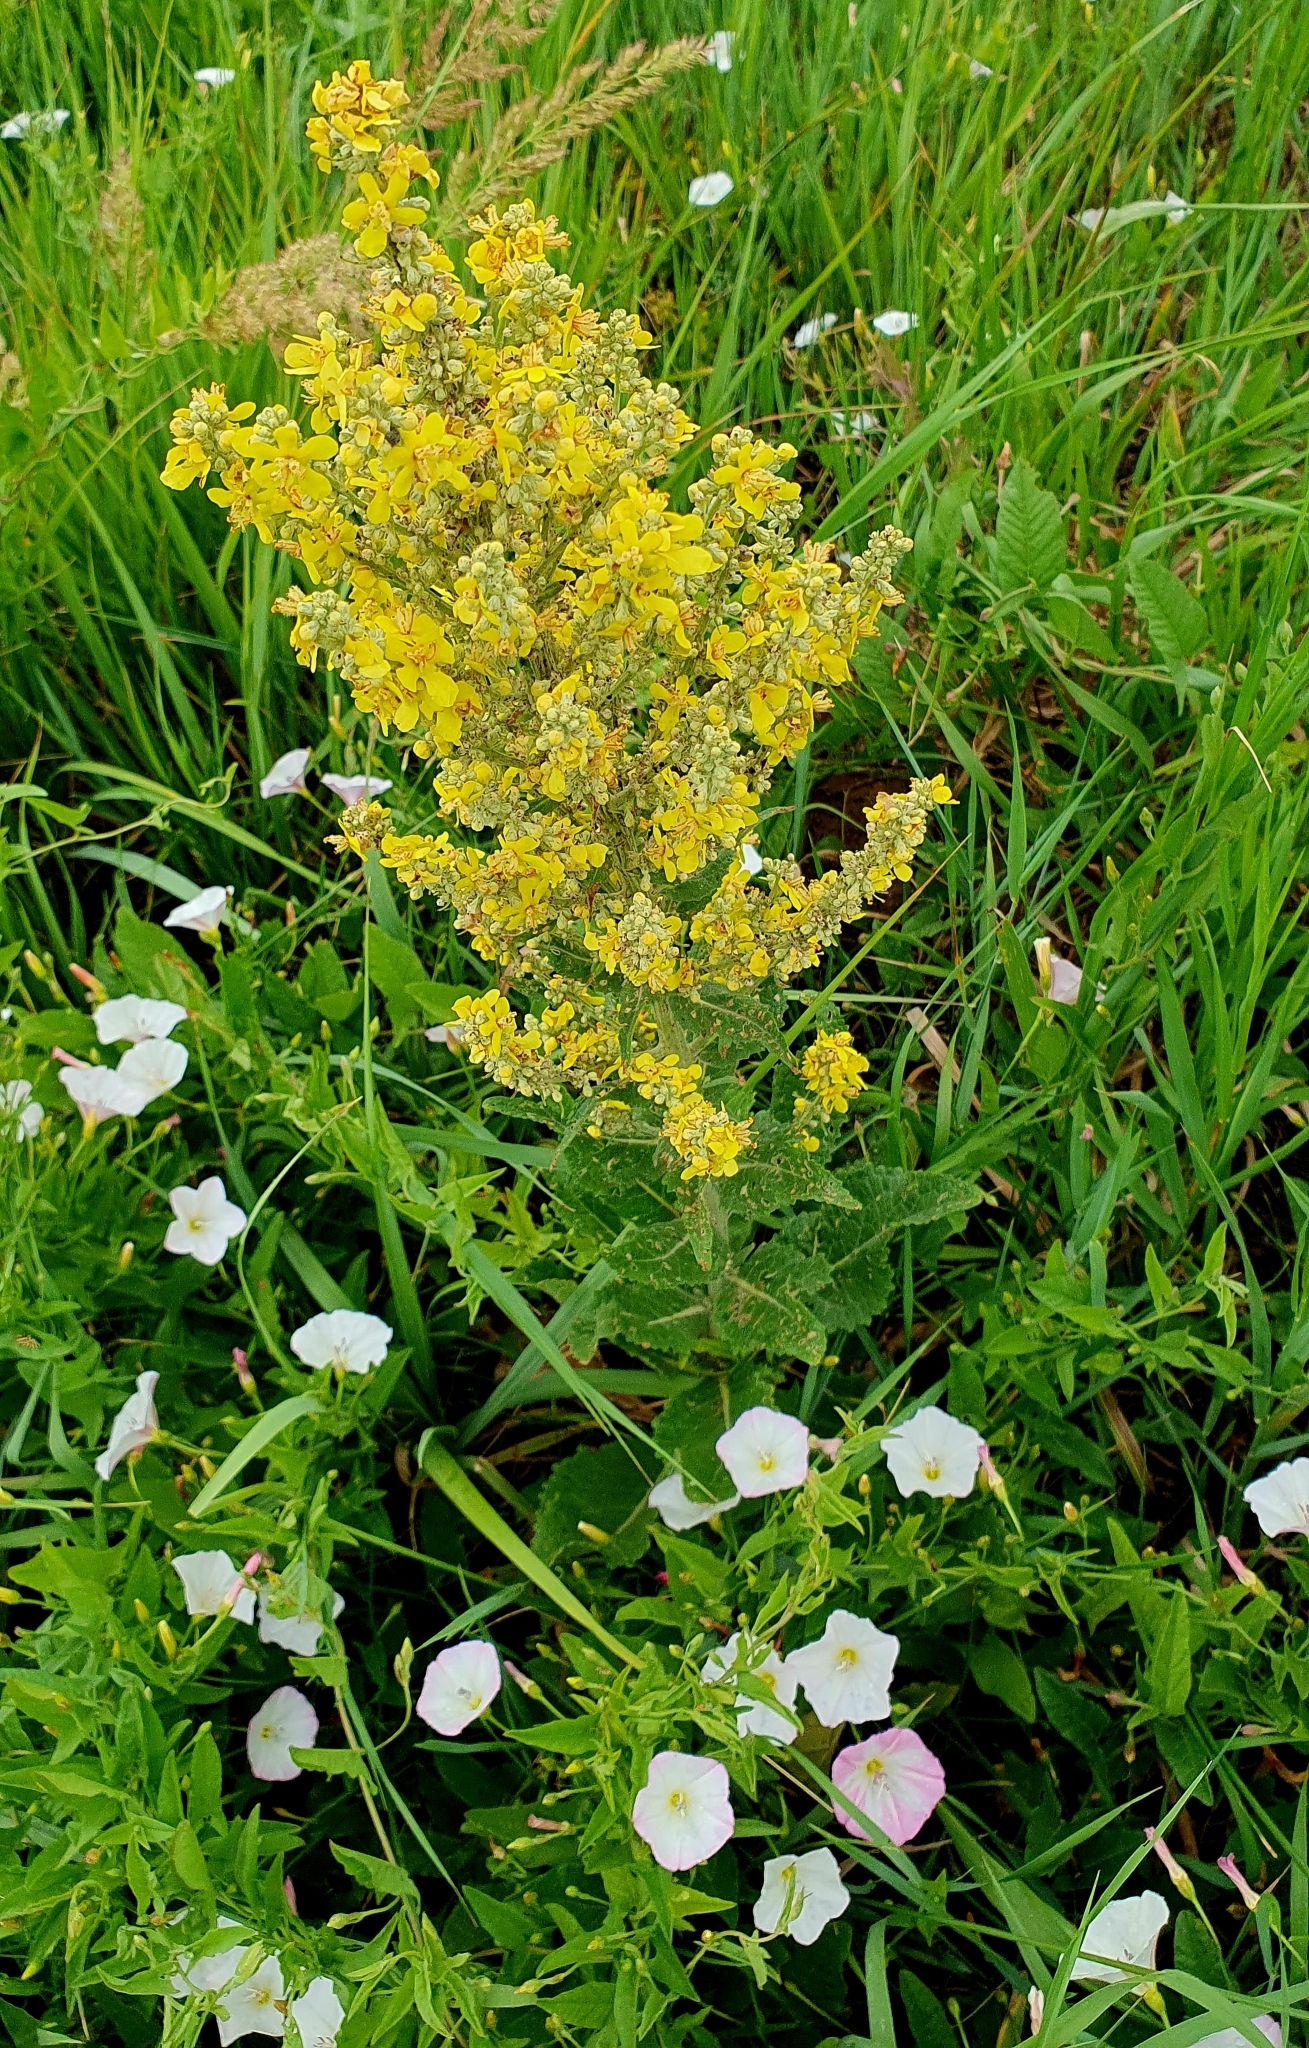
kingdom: Plantae
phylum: Tracheophyta
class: Magnoliopsida
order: Lamiales
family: Scrophulariaceae
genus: Verbascum
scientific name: Verbascum lychnitis
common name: White mullein
